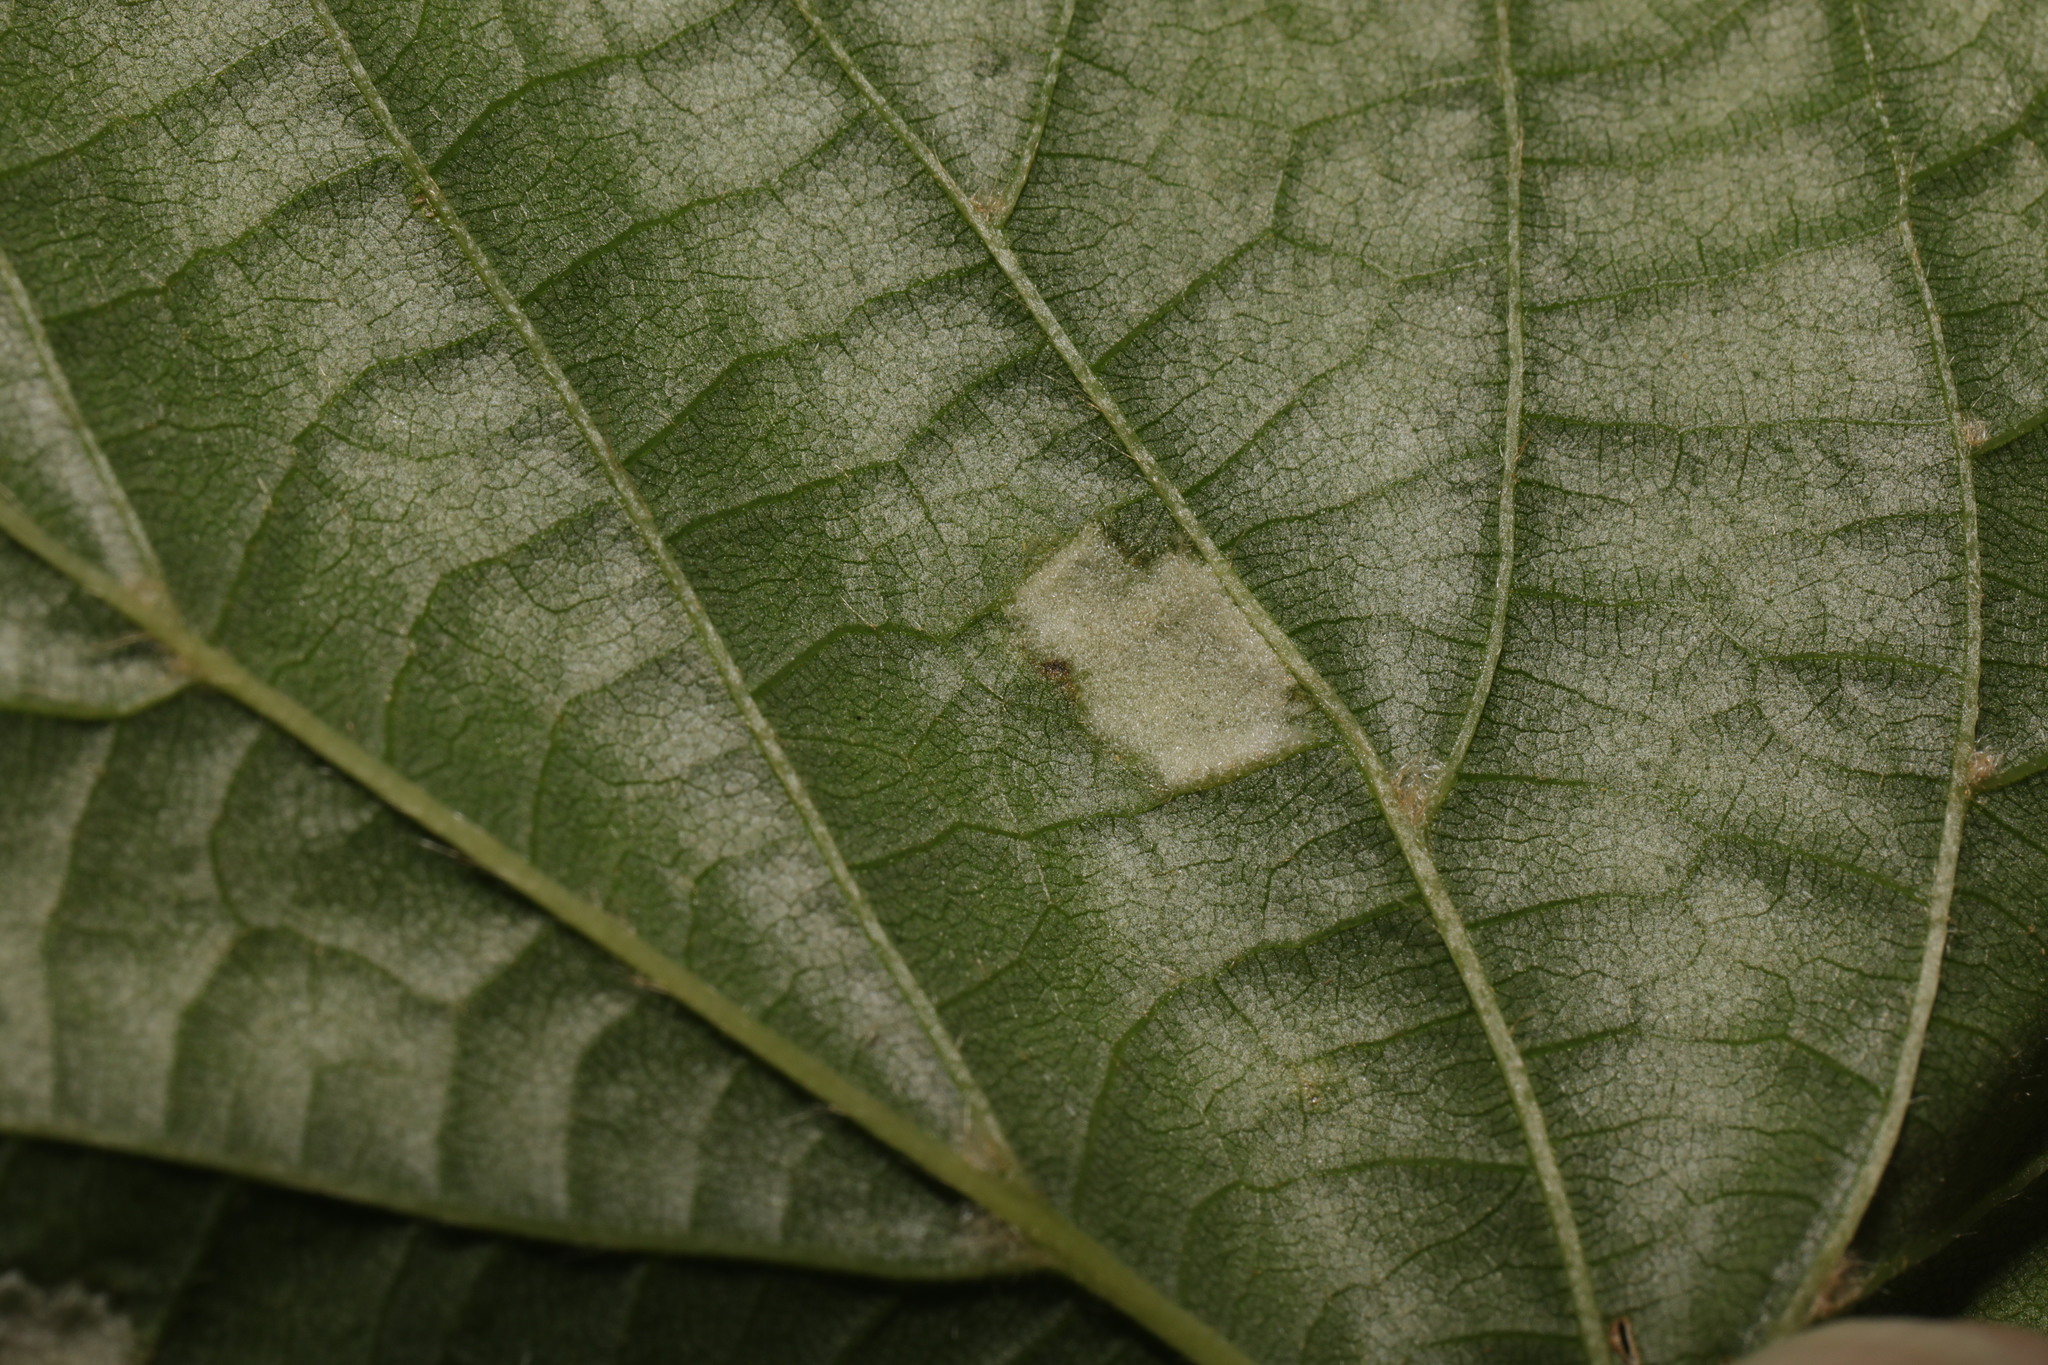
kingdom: Animalia
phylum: Arthropoda
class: Arachnida
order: Trombidiformes
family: Eriophyidae
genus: Eriophyes
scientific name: Eriophyes leiosoma
